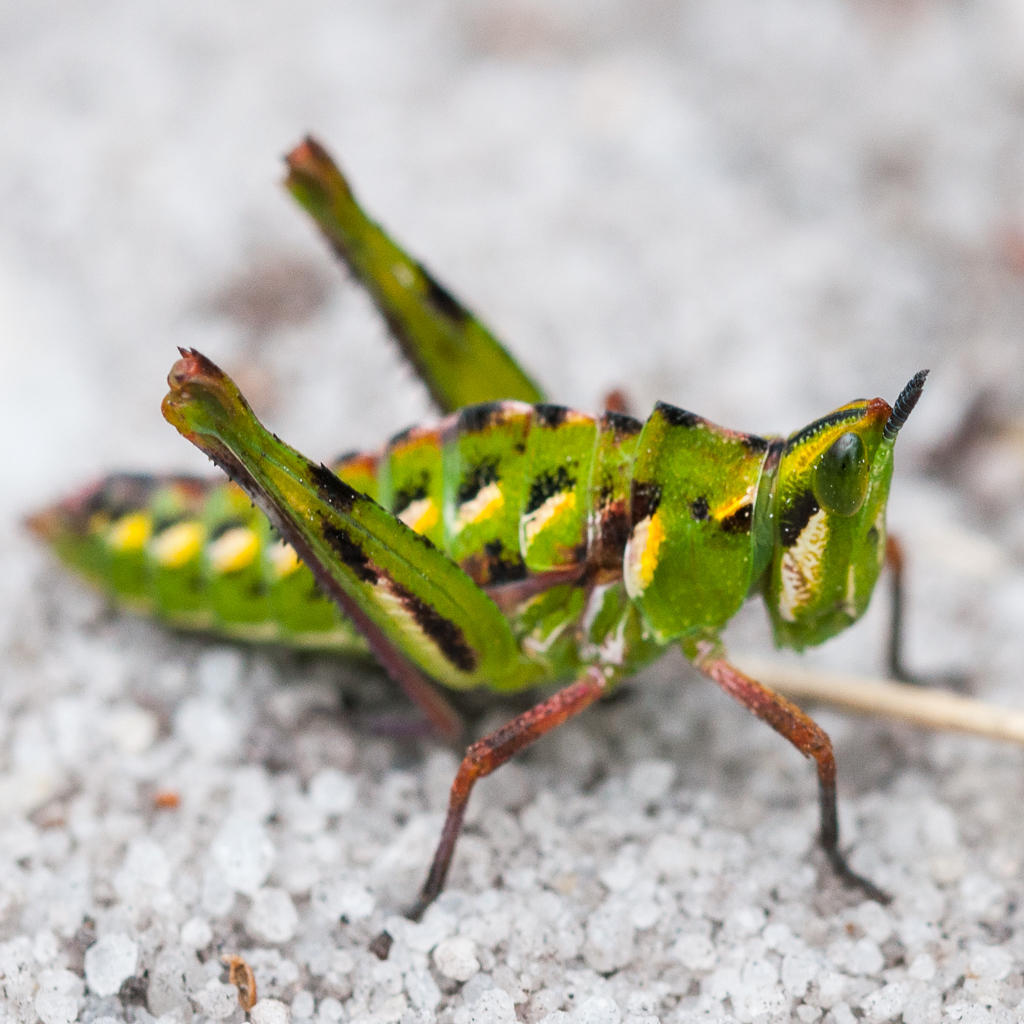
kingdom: Animalia
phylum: Arthropoda
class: Insecta
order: Orthoptera
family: Thericleidae
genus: Thericlesiella
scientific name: Thericlesiella meridionalis
